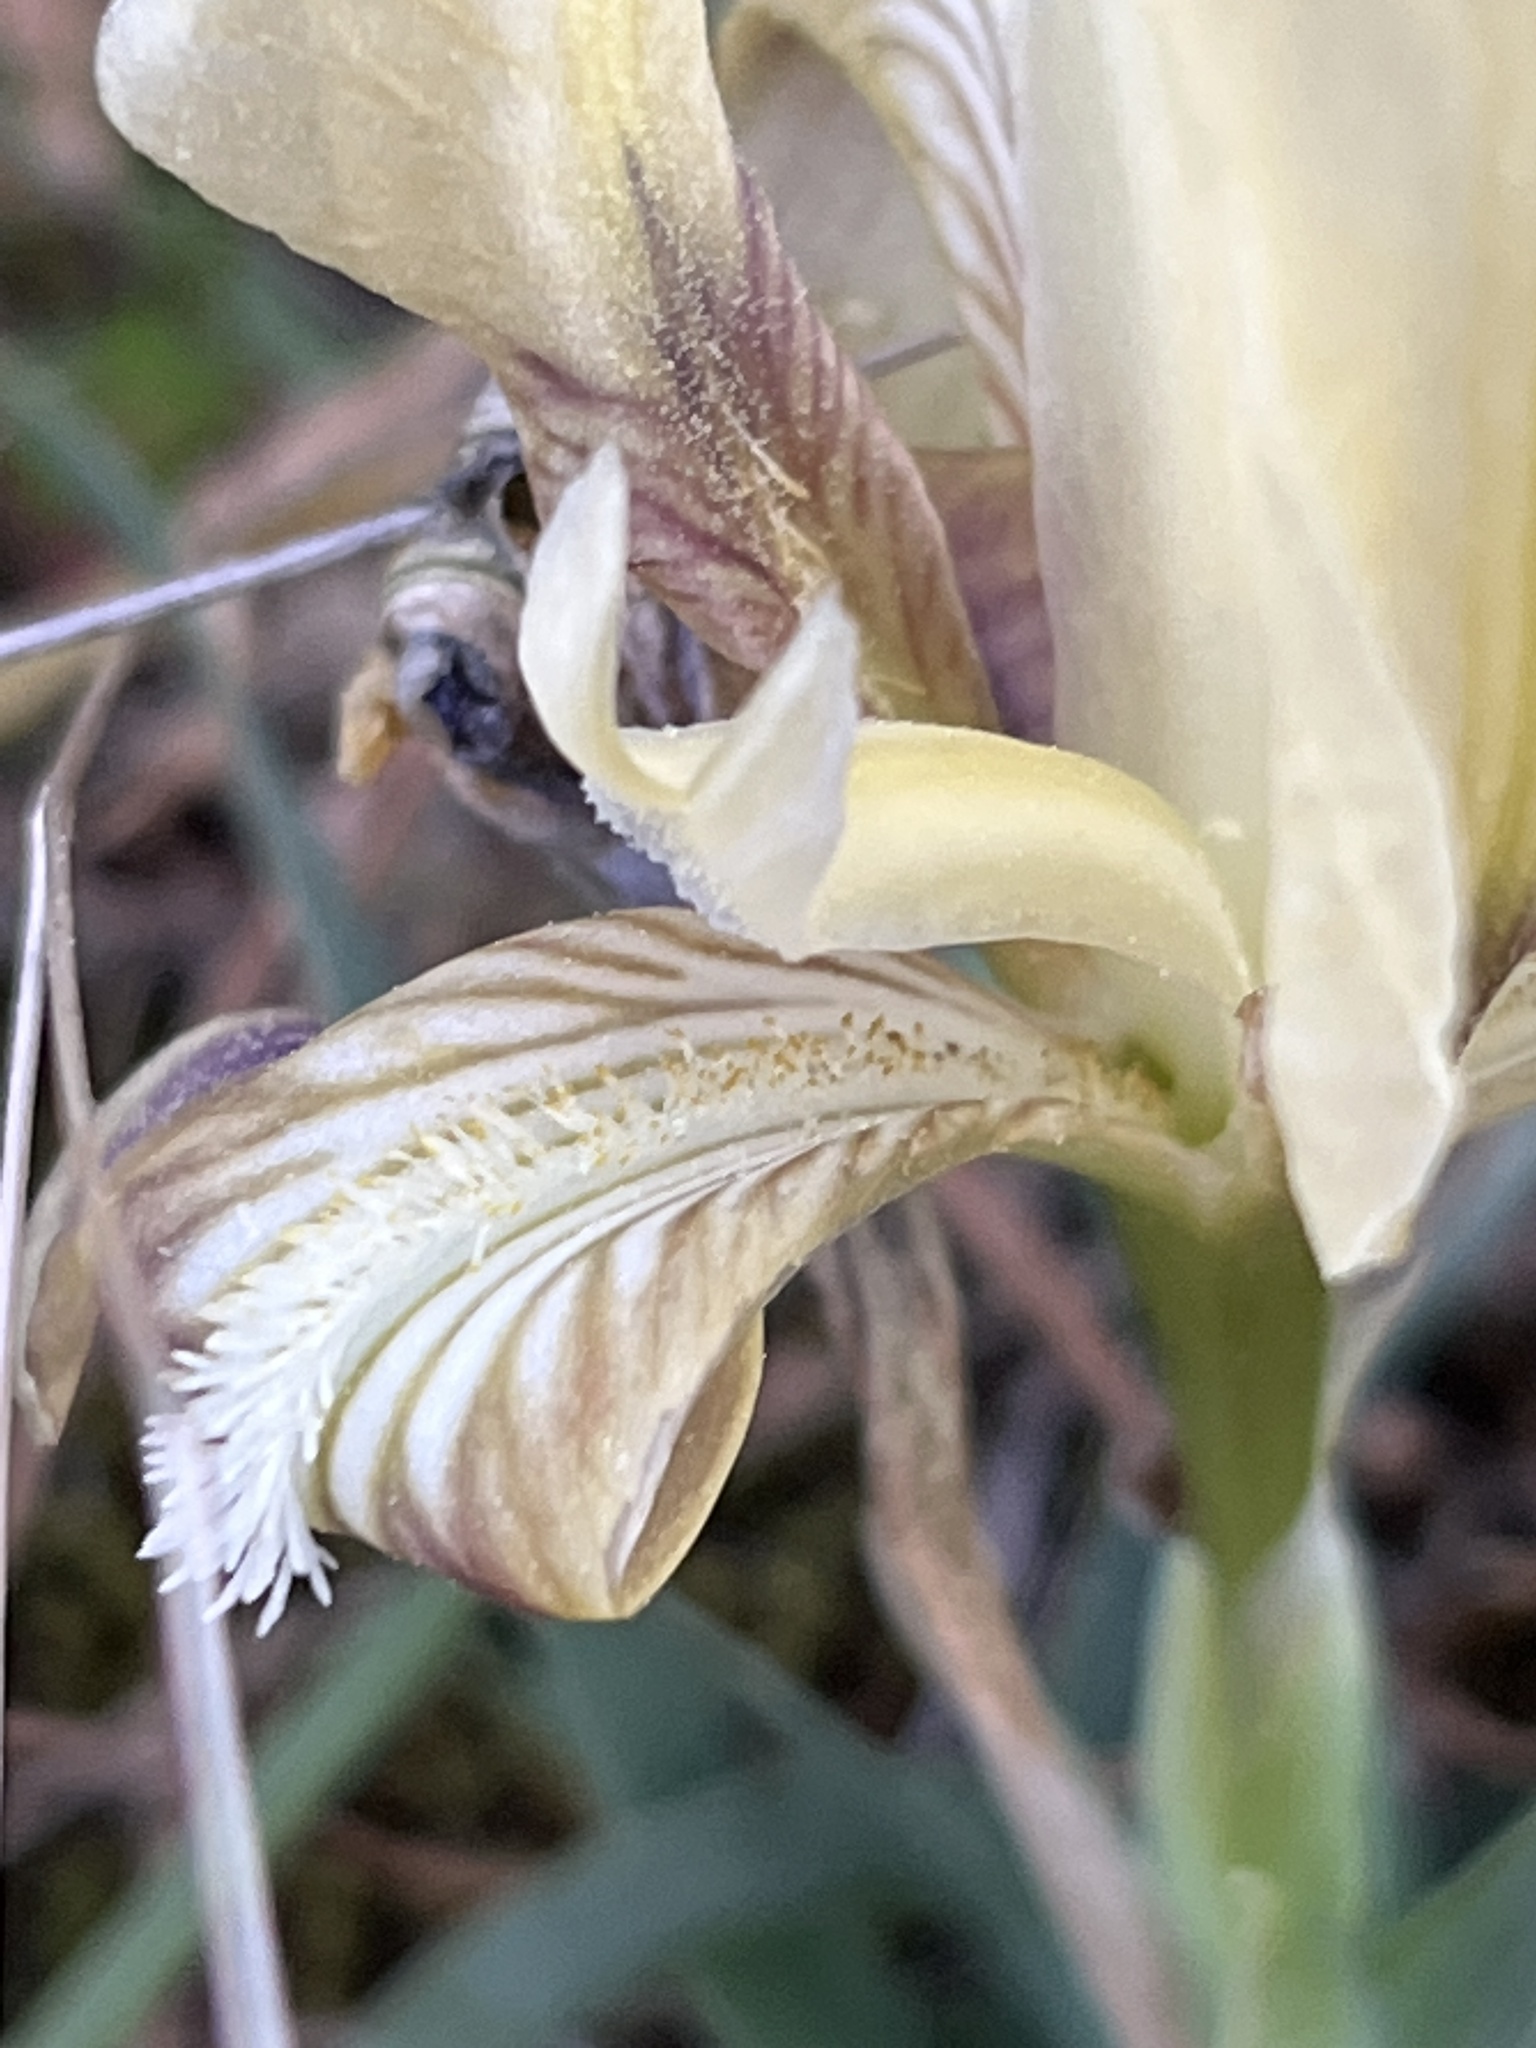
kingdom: Plantae
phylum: Tracheophyta
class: Liliopsida
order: Asparagales
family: Iridaceae
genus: Iris
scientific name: Iris pumila
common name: Dwarf iris
